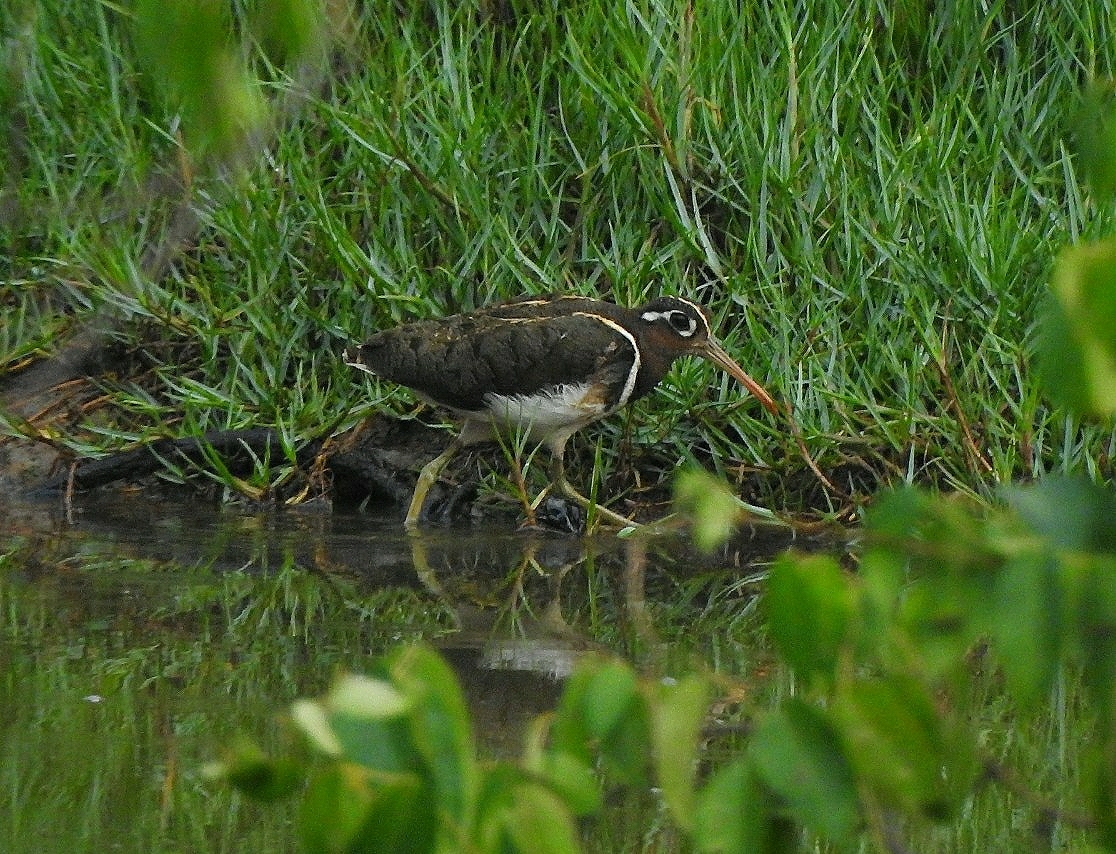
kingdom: Animalia
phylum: Chordata
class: Aves
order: Charadriiformes
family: Rostratulidae
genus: Rostratula
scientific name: Rostratula benghalensis
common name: Greater painted-snipe
